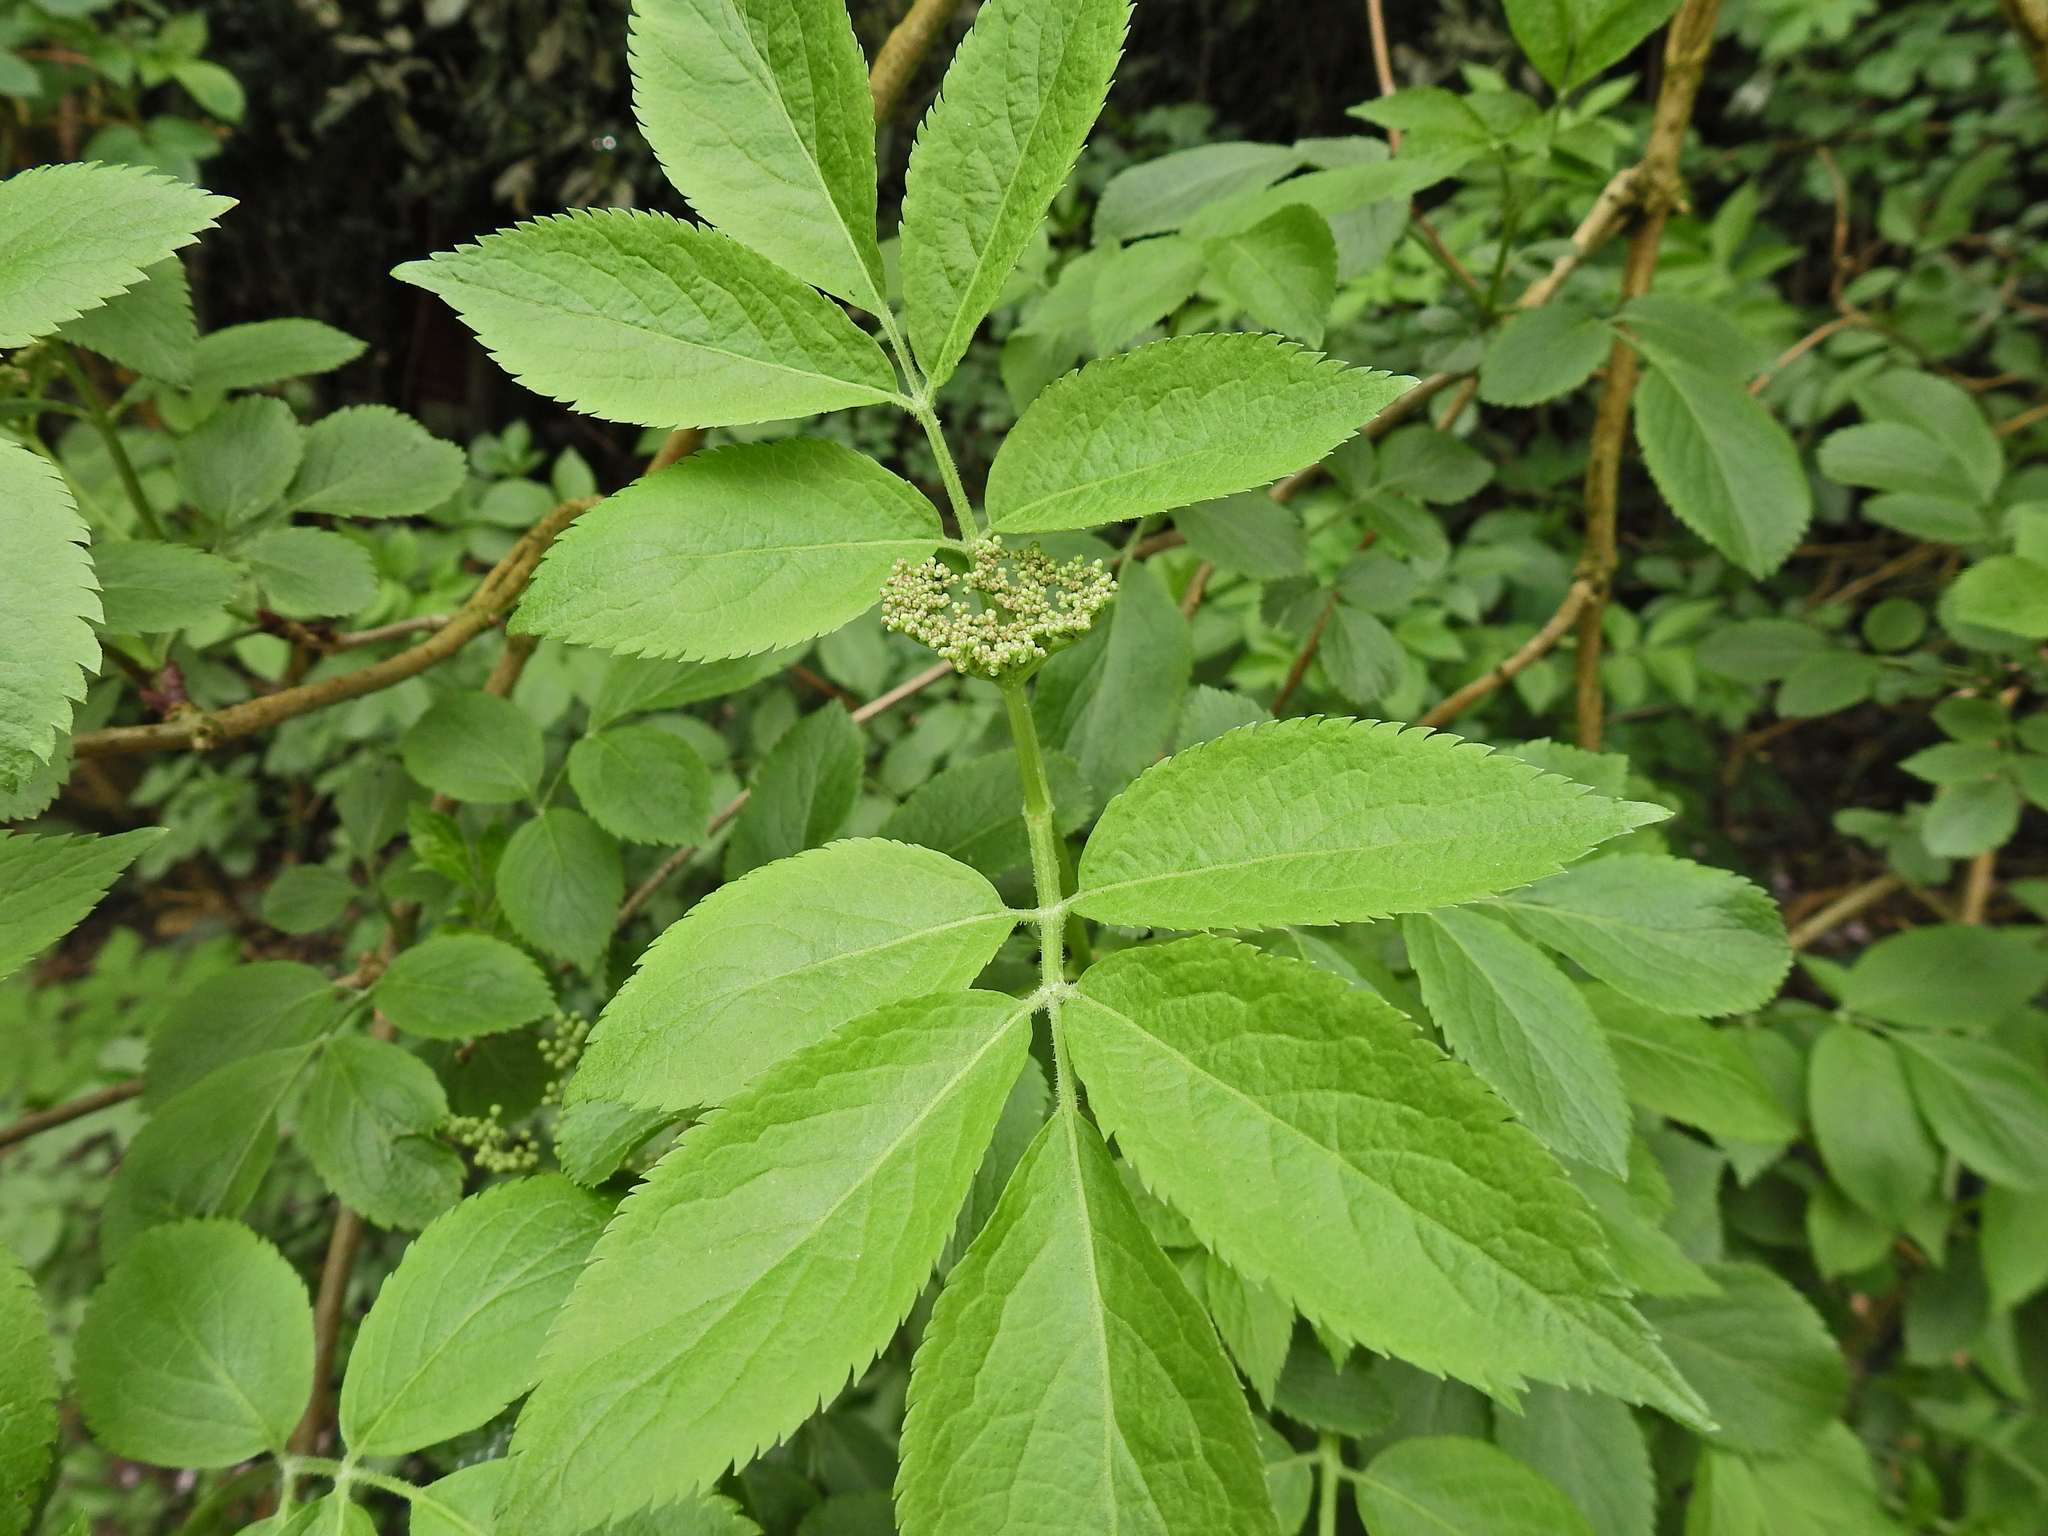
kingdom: Plantae
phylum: Tracheophyta
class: Magnoliopsida
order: Dipsacales
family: Viburnaceae
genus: Sambucus
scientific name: Sambucus nigra
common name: Elder
